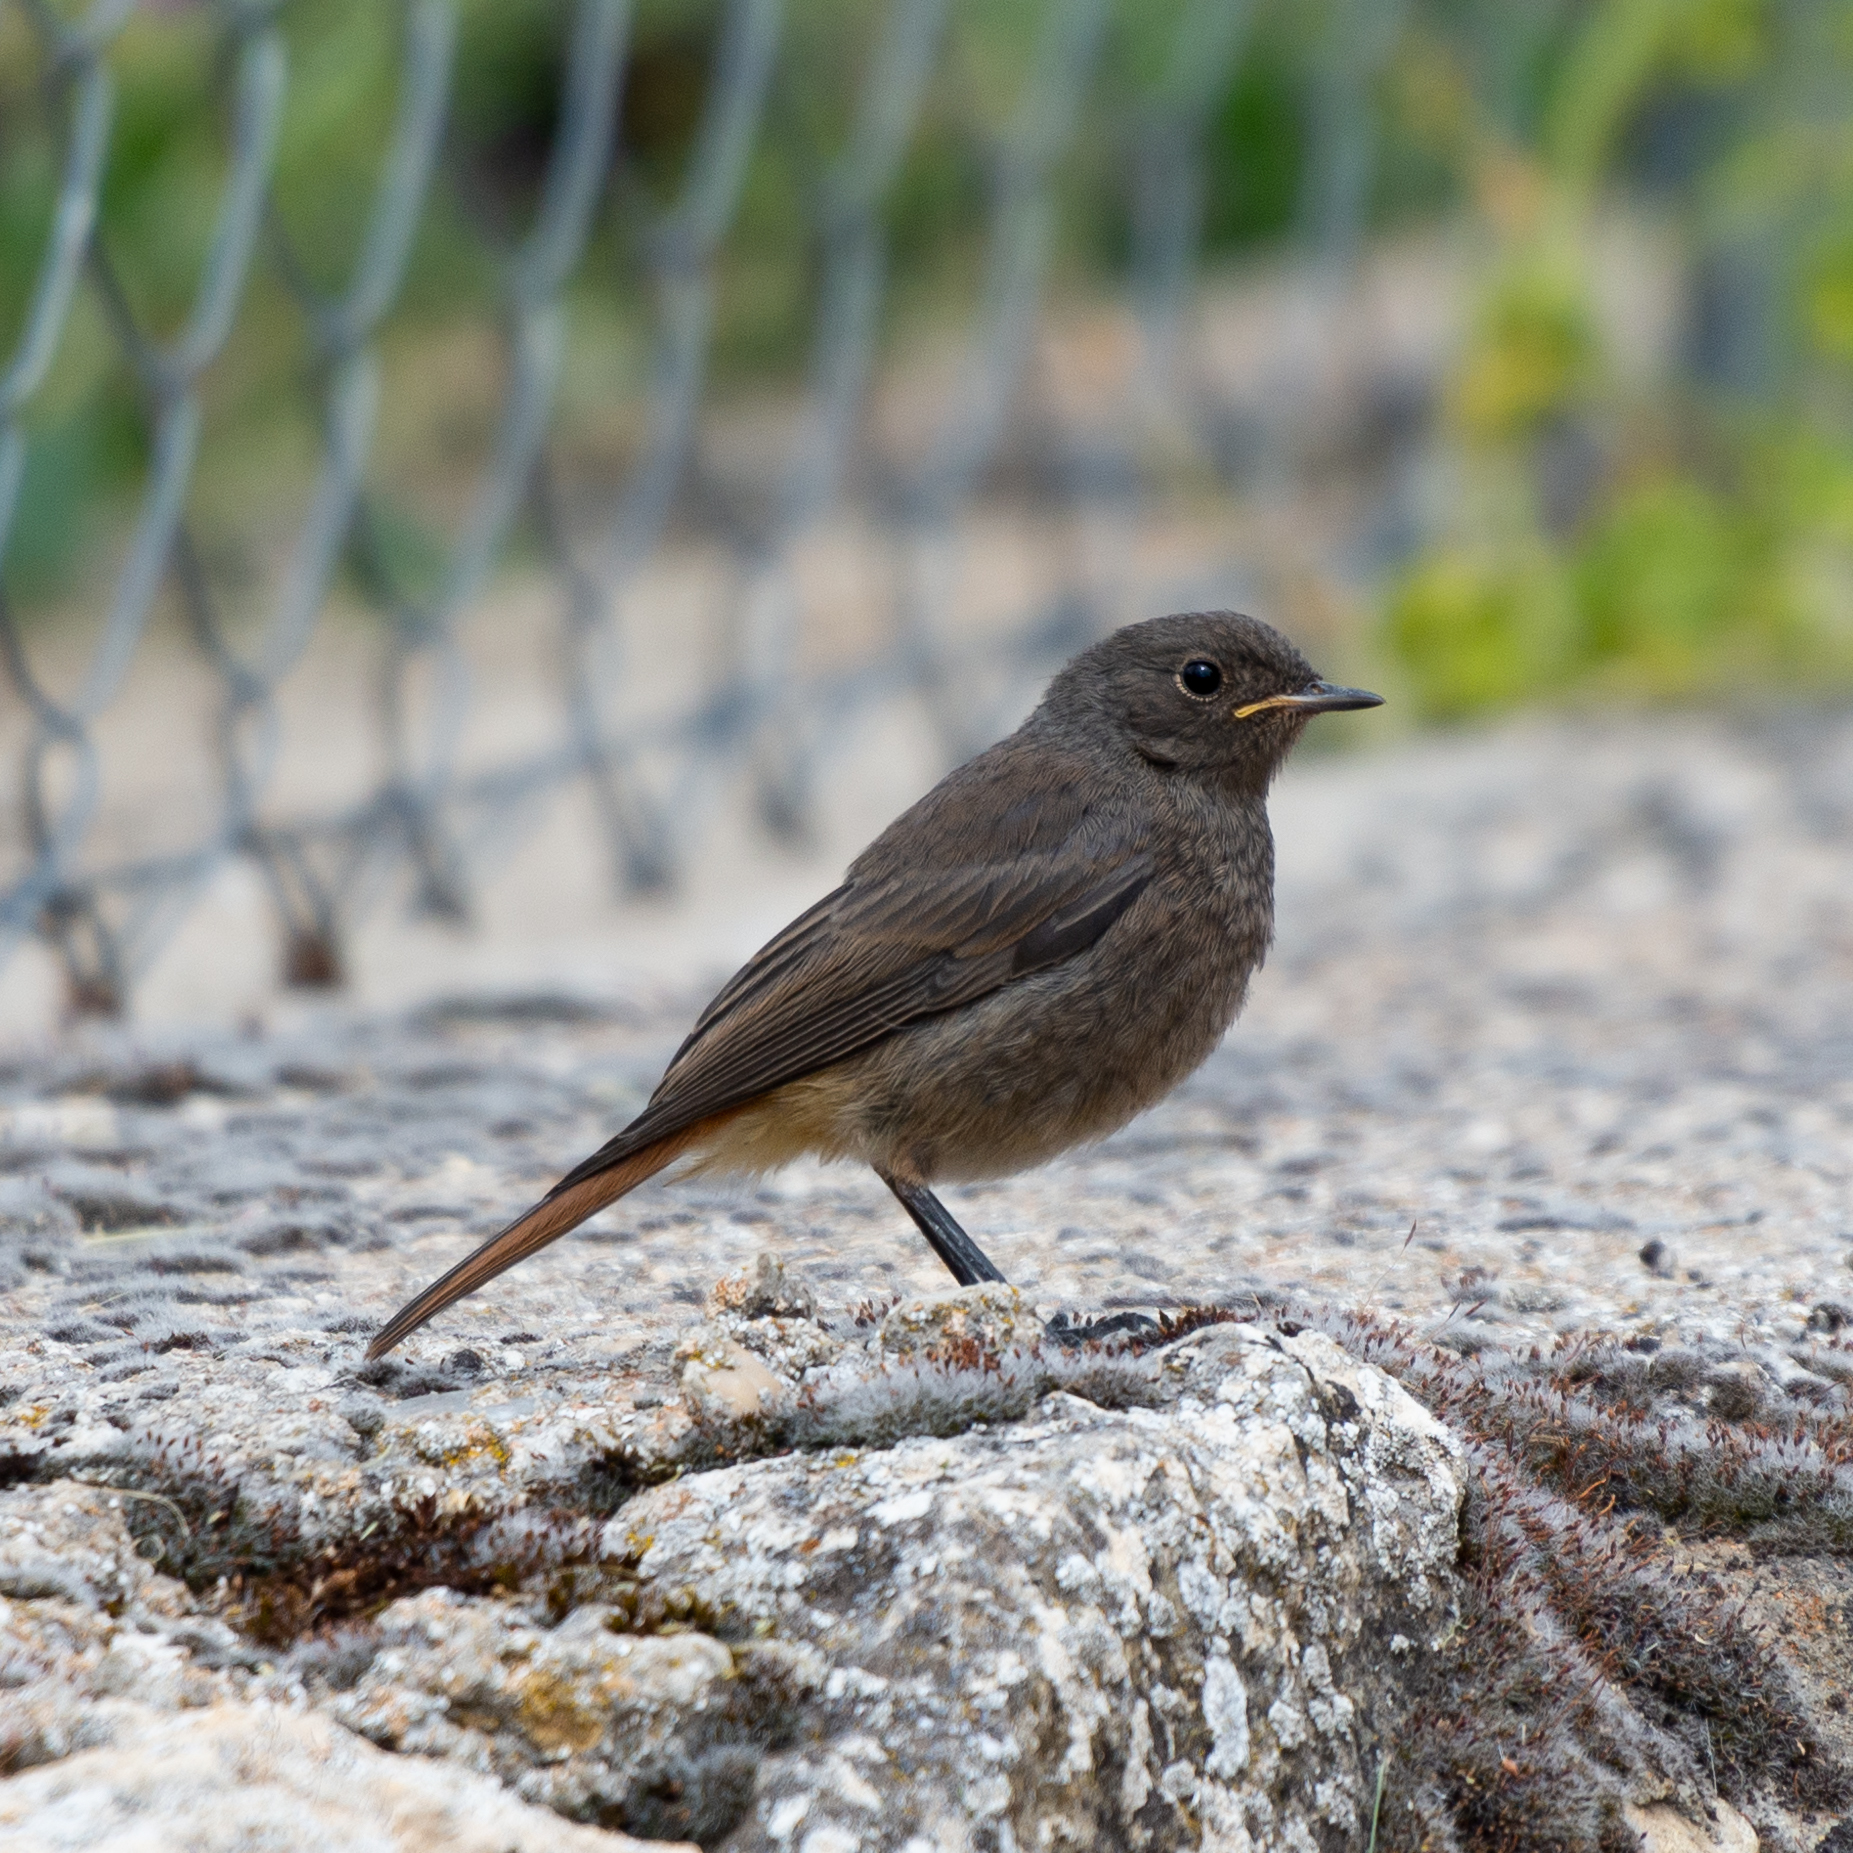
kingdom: Animalia
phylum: Chordata
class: Aves
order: Passeriformes
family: Muscicapidae
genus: Phoenicurus
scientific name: Phoenicurus ochruros
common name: Black redstart
